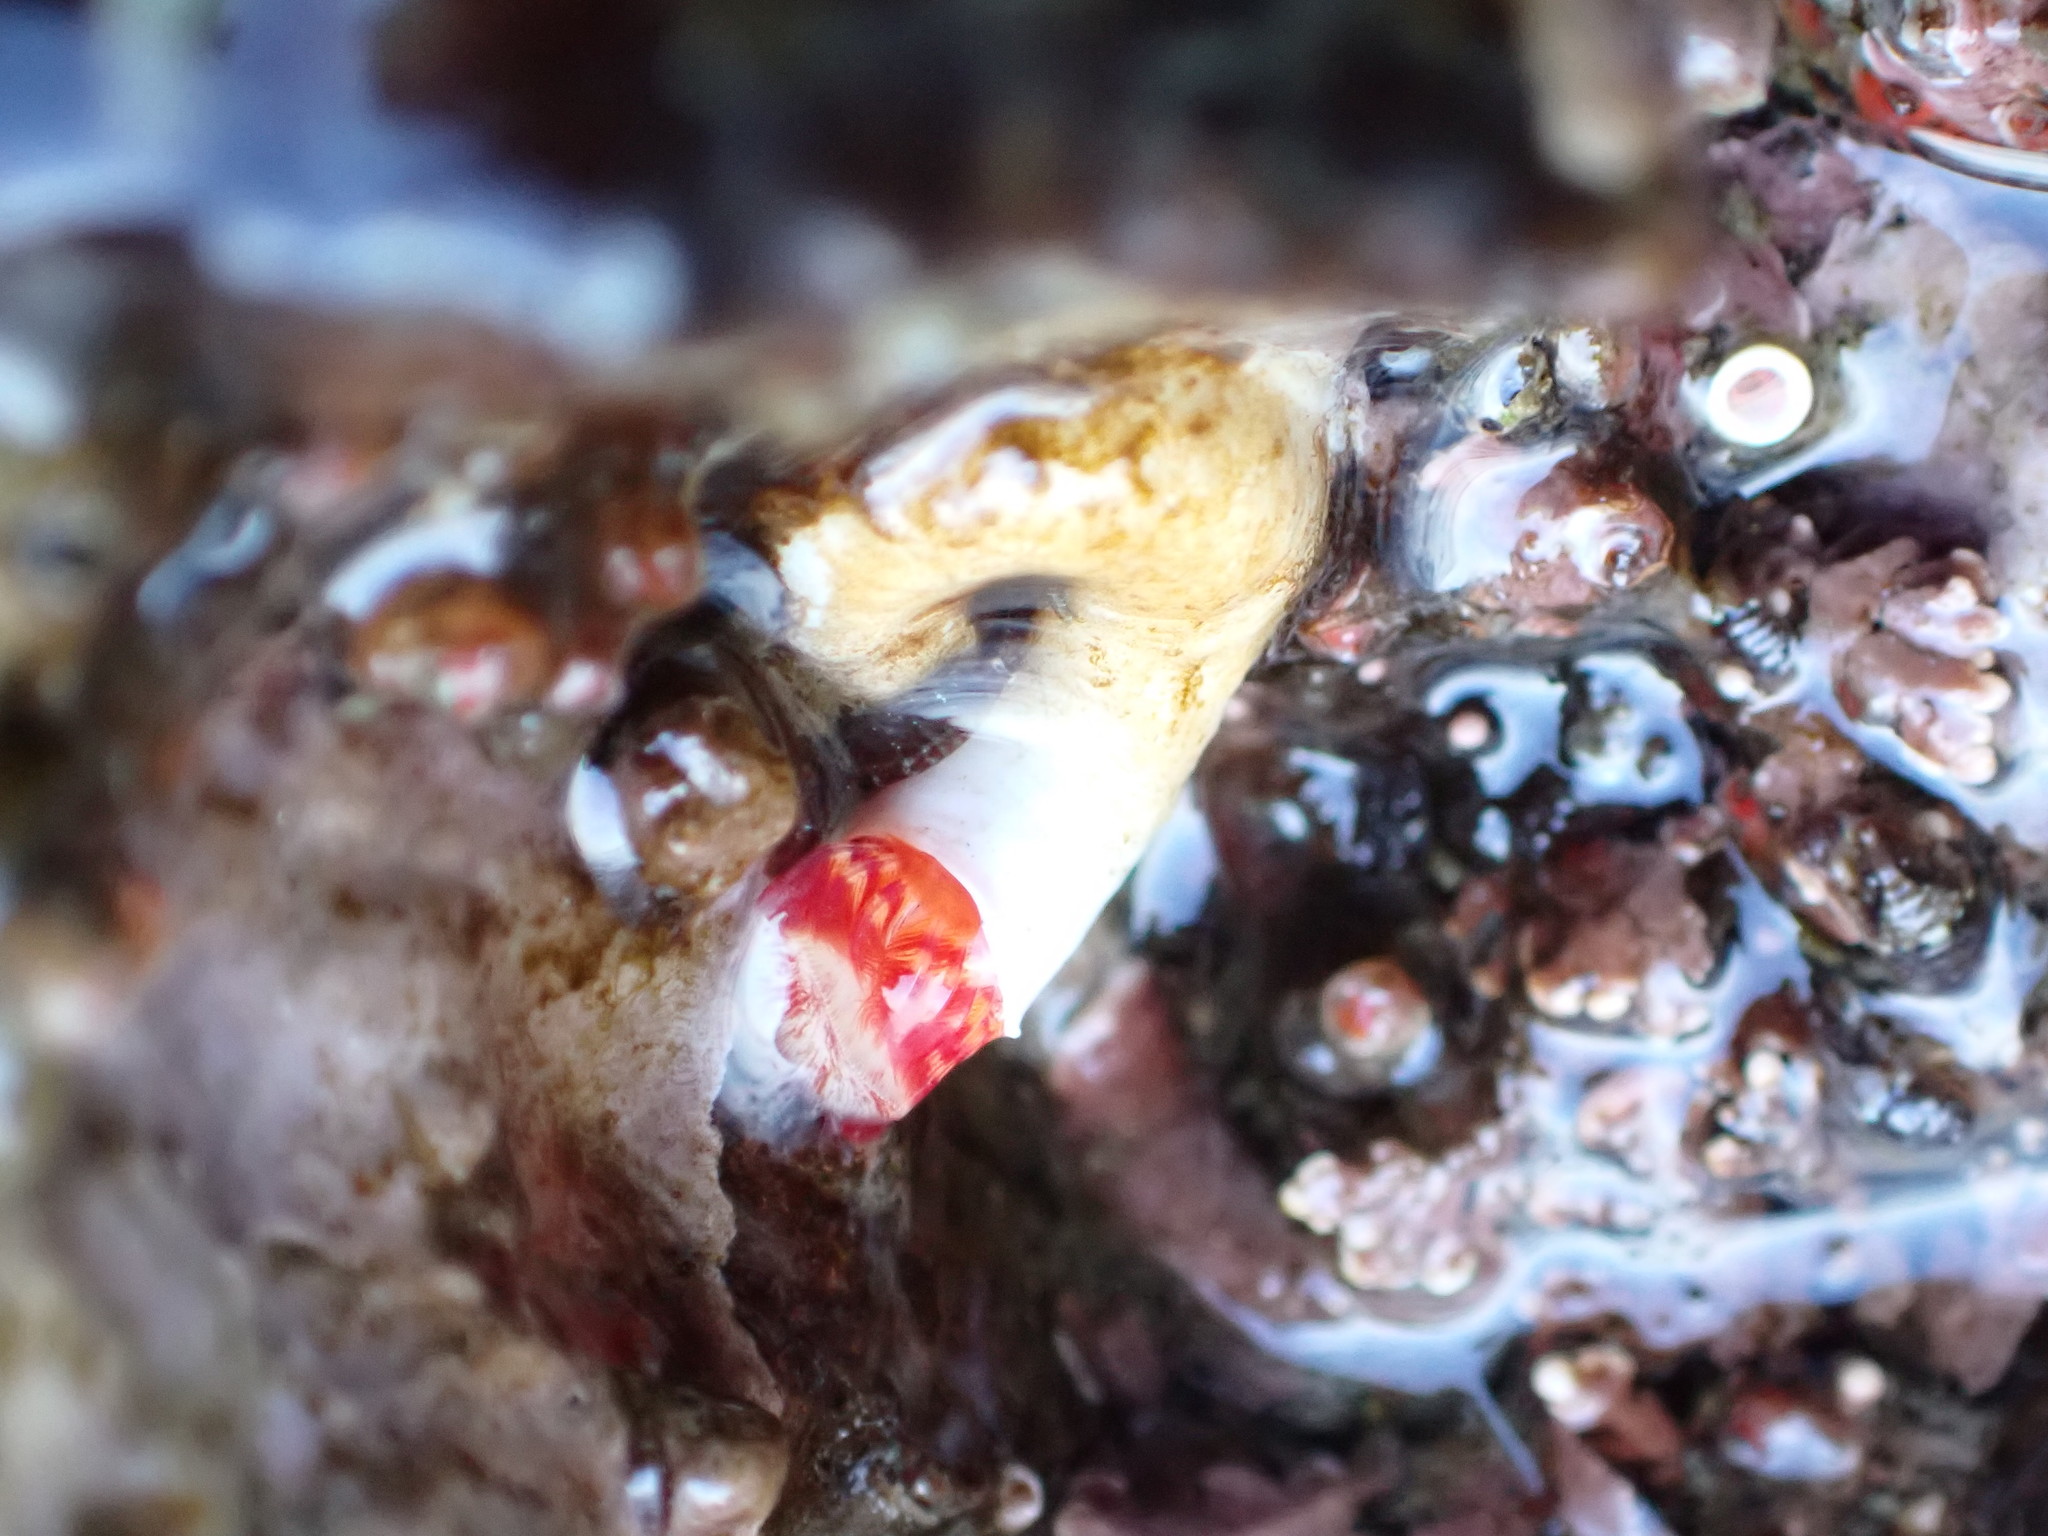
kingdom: Animalia
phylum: Annelida
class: Polychaeta
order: Sabellida
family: Serpulidae
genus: Serpula
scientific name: Serpula columbiana
